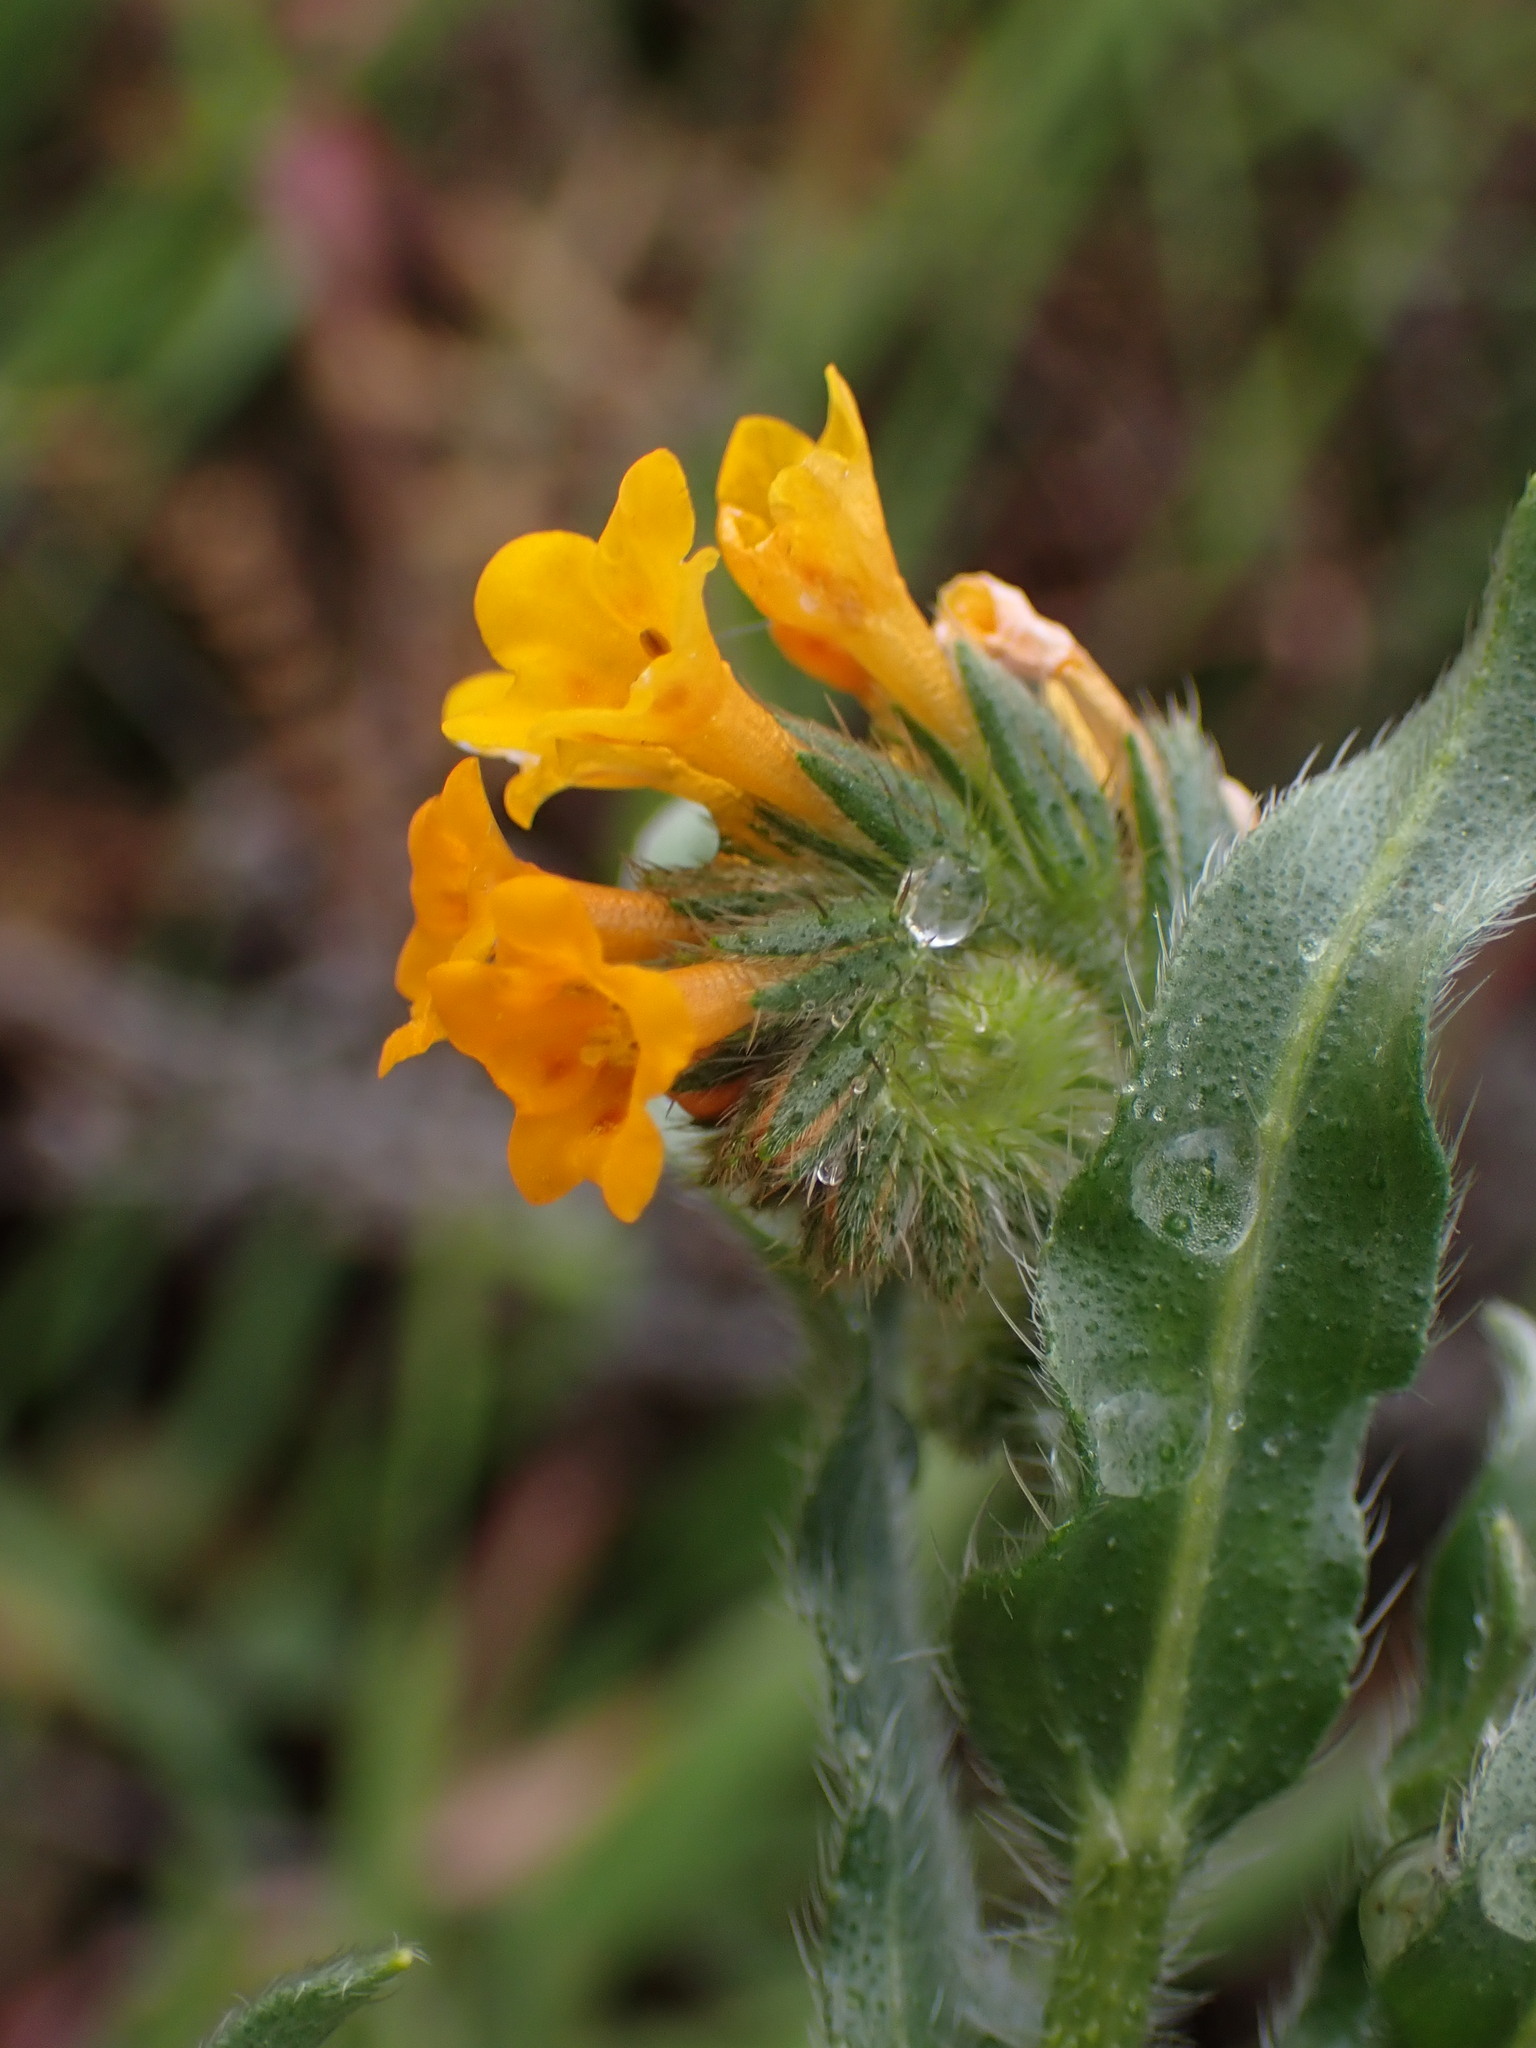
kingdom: Plantae
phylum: Tracheophyta
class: Magnoliopsida
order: Boraginales
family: Boraginaceae
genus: Amsinckia
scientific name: Amsinckia menziesii
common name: Menzies' fiddleneck
